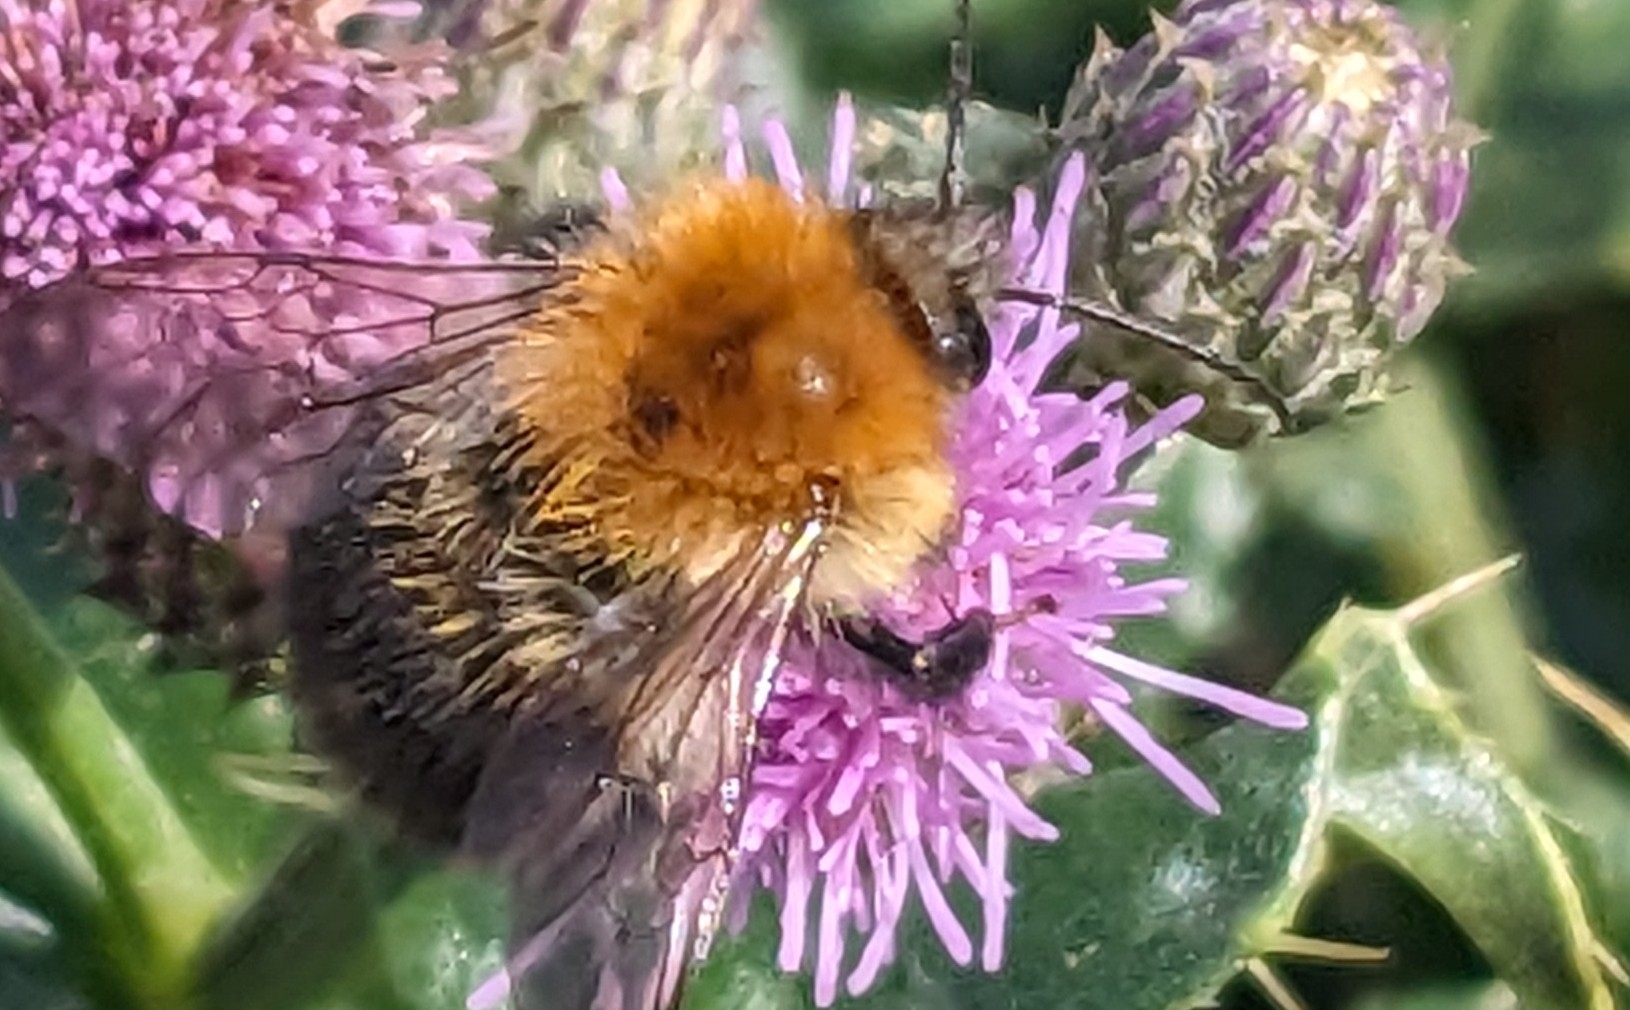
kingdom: Animalia
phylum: Arthropoda
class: Insecta
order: Hymenoptera
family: Apidae
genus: Bombus
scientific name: Bombus pascuorum
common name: Common carder bee
